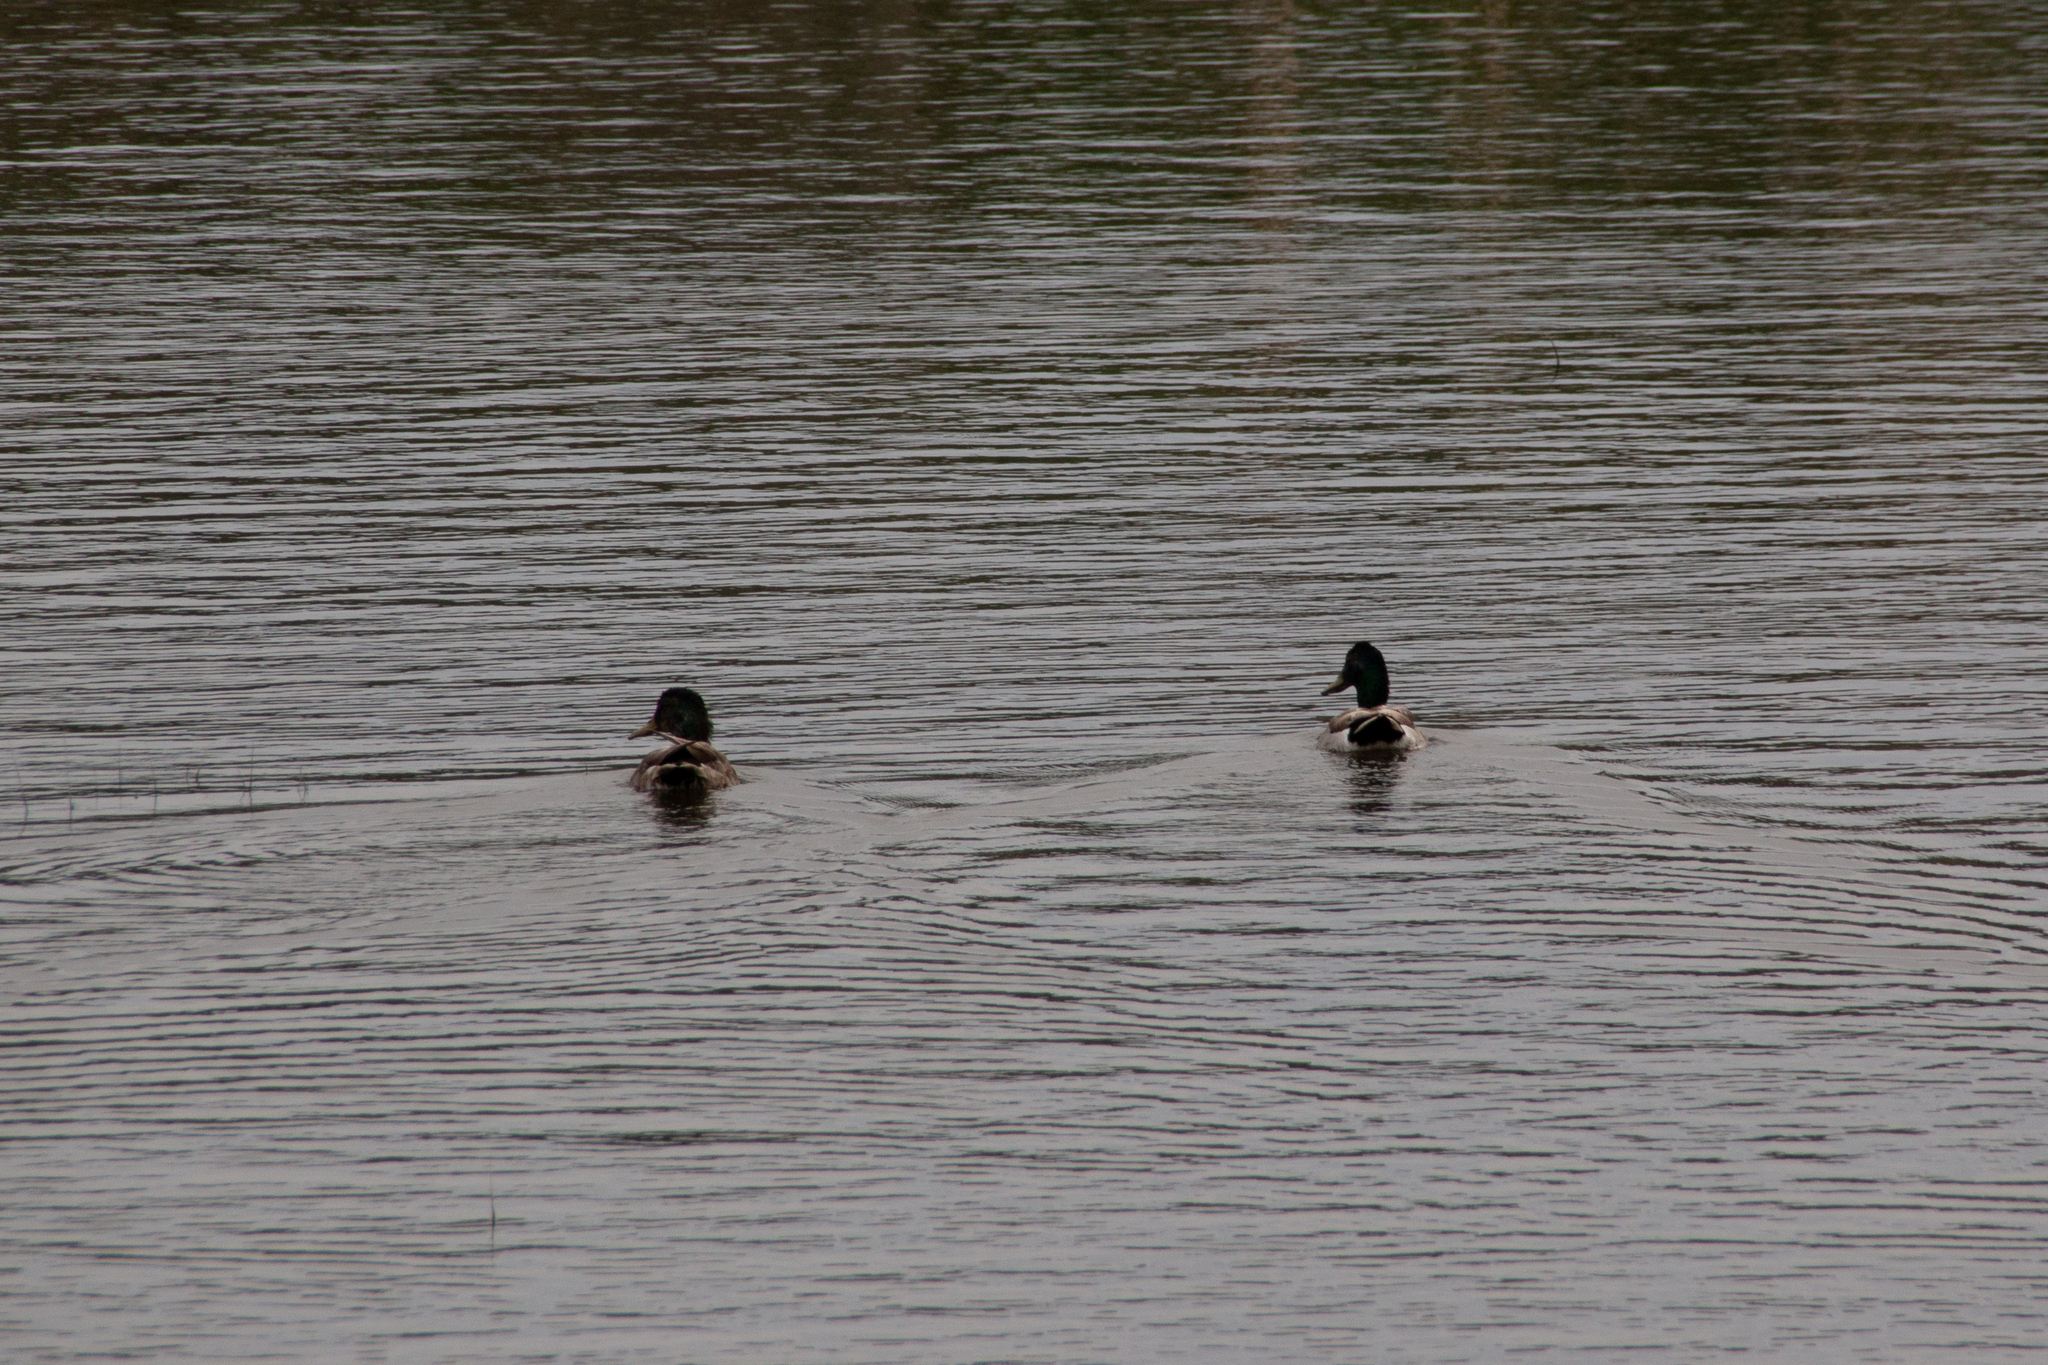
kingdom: Animalia
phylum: Chordata
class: Aves
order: Anseriformes
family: Anatidae
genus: Anas
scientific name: Anas platyrhynchos
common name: Mallard
